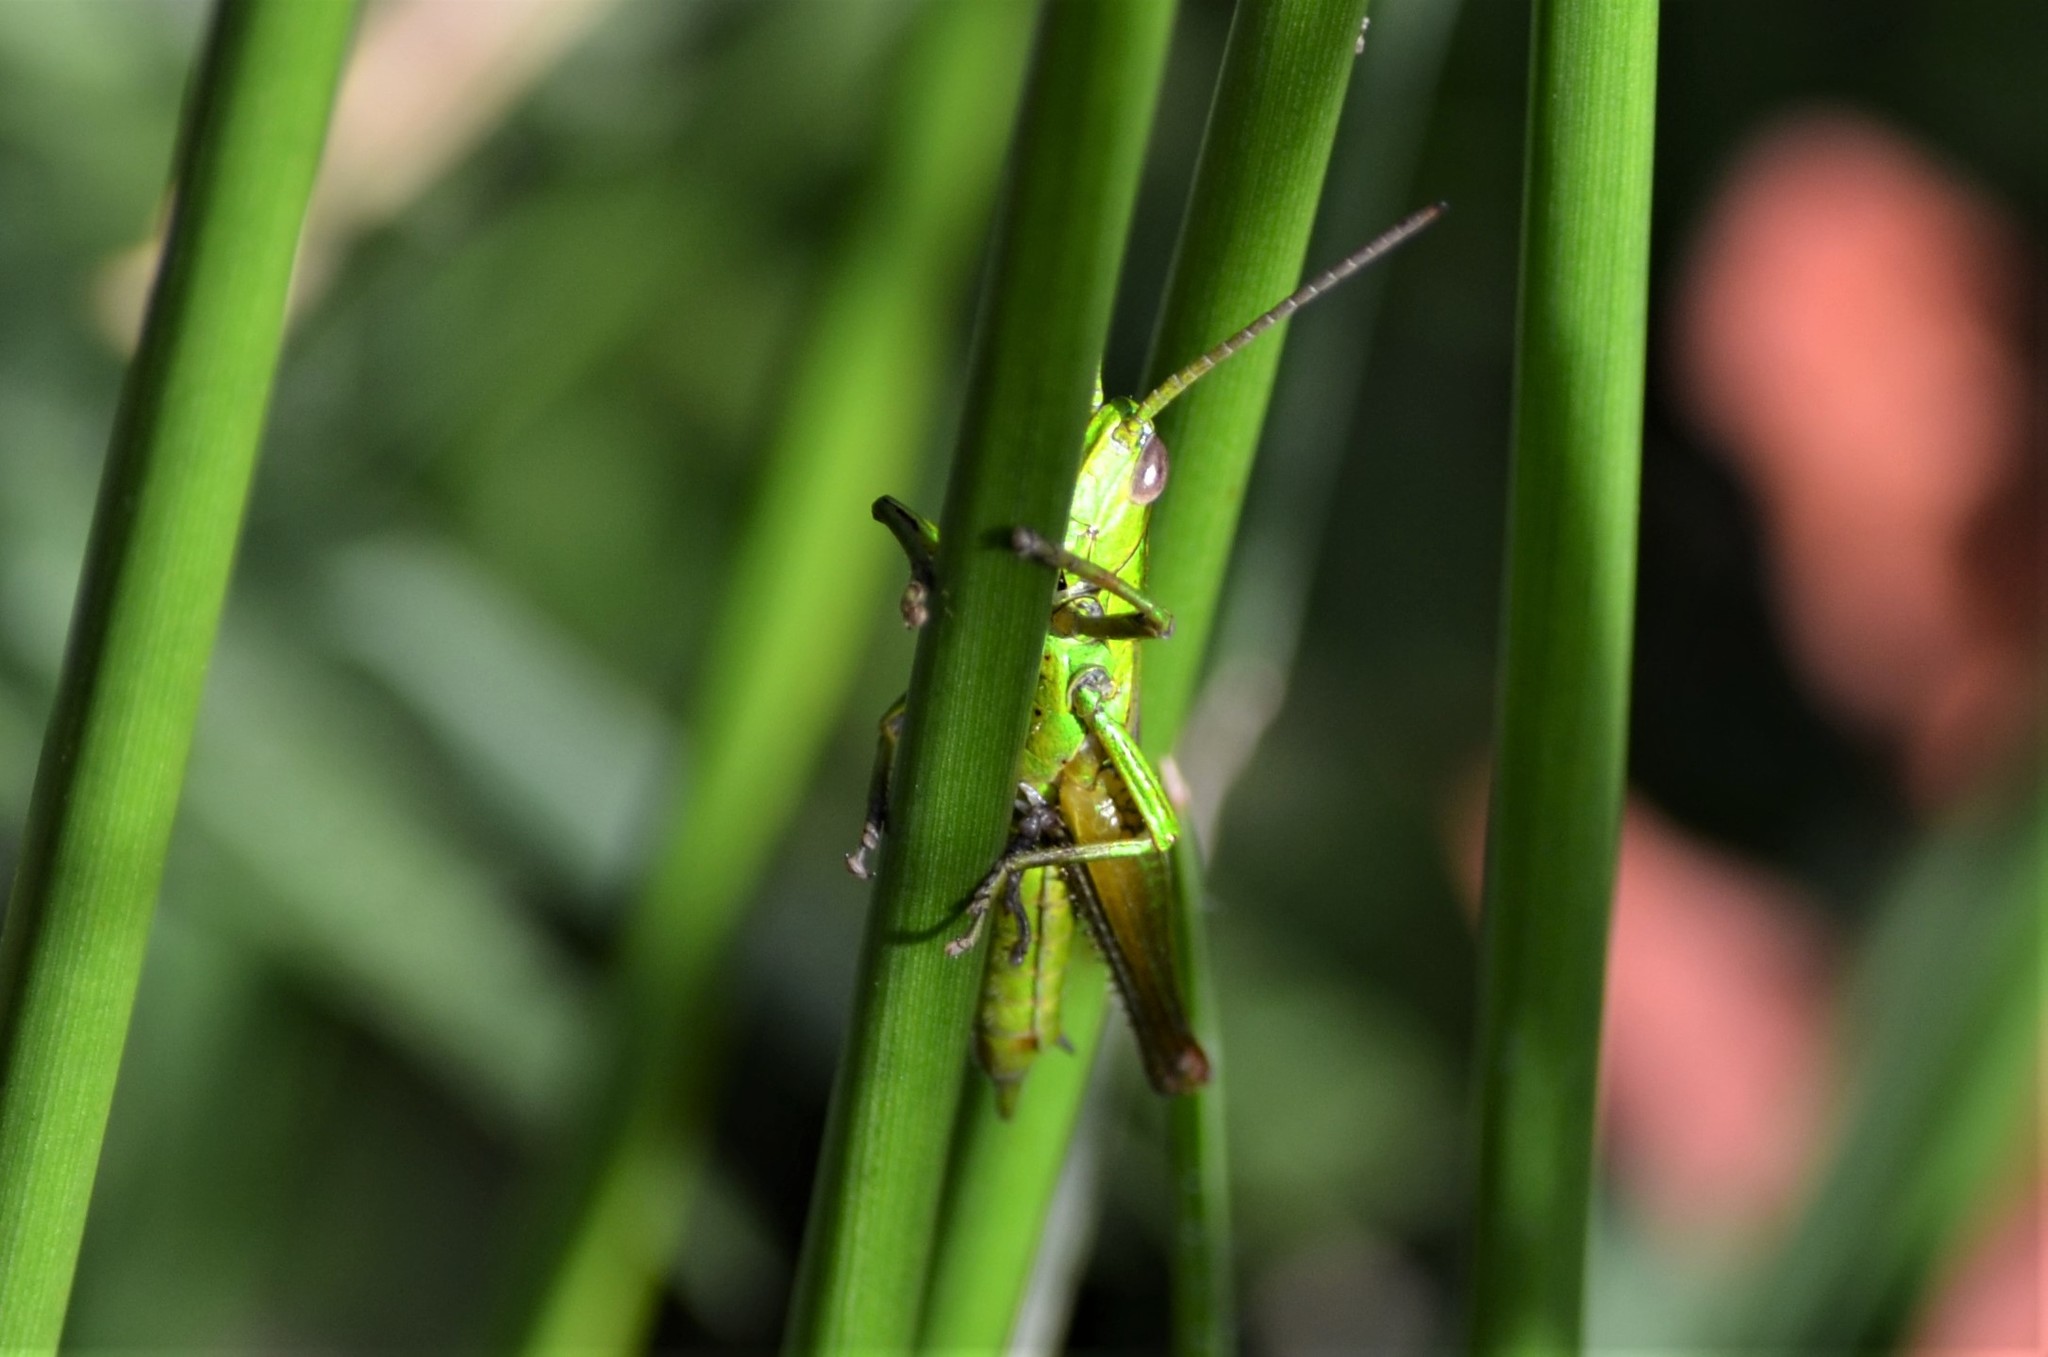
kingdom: Animalia
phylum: Arthropoda
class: Insecta
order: Orthoptera
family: Acrididae
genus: Euthystira
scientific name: Euthystira brachyptera
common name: Small gold grasshopper
